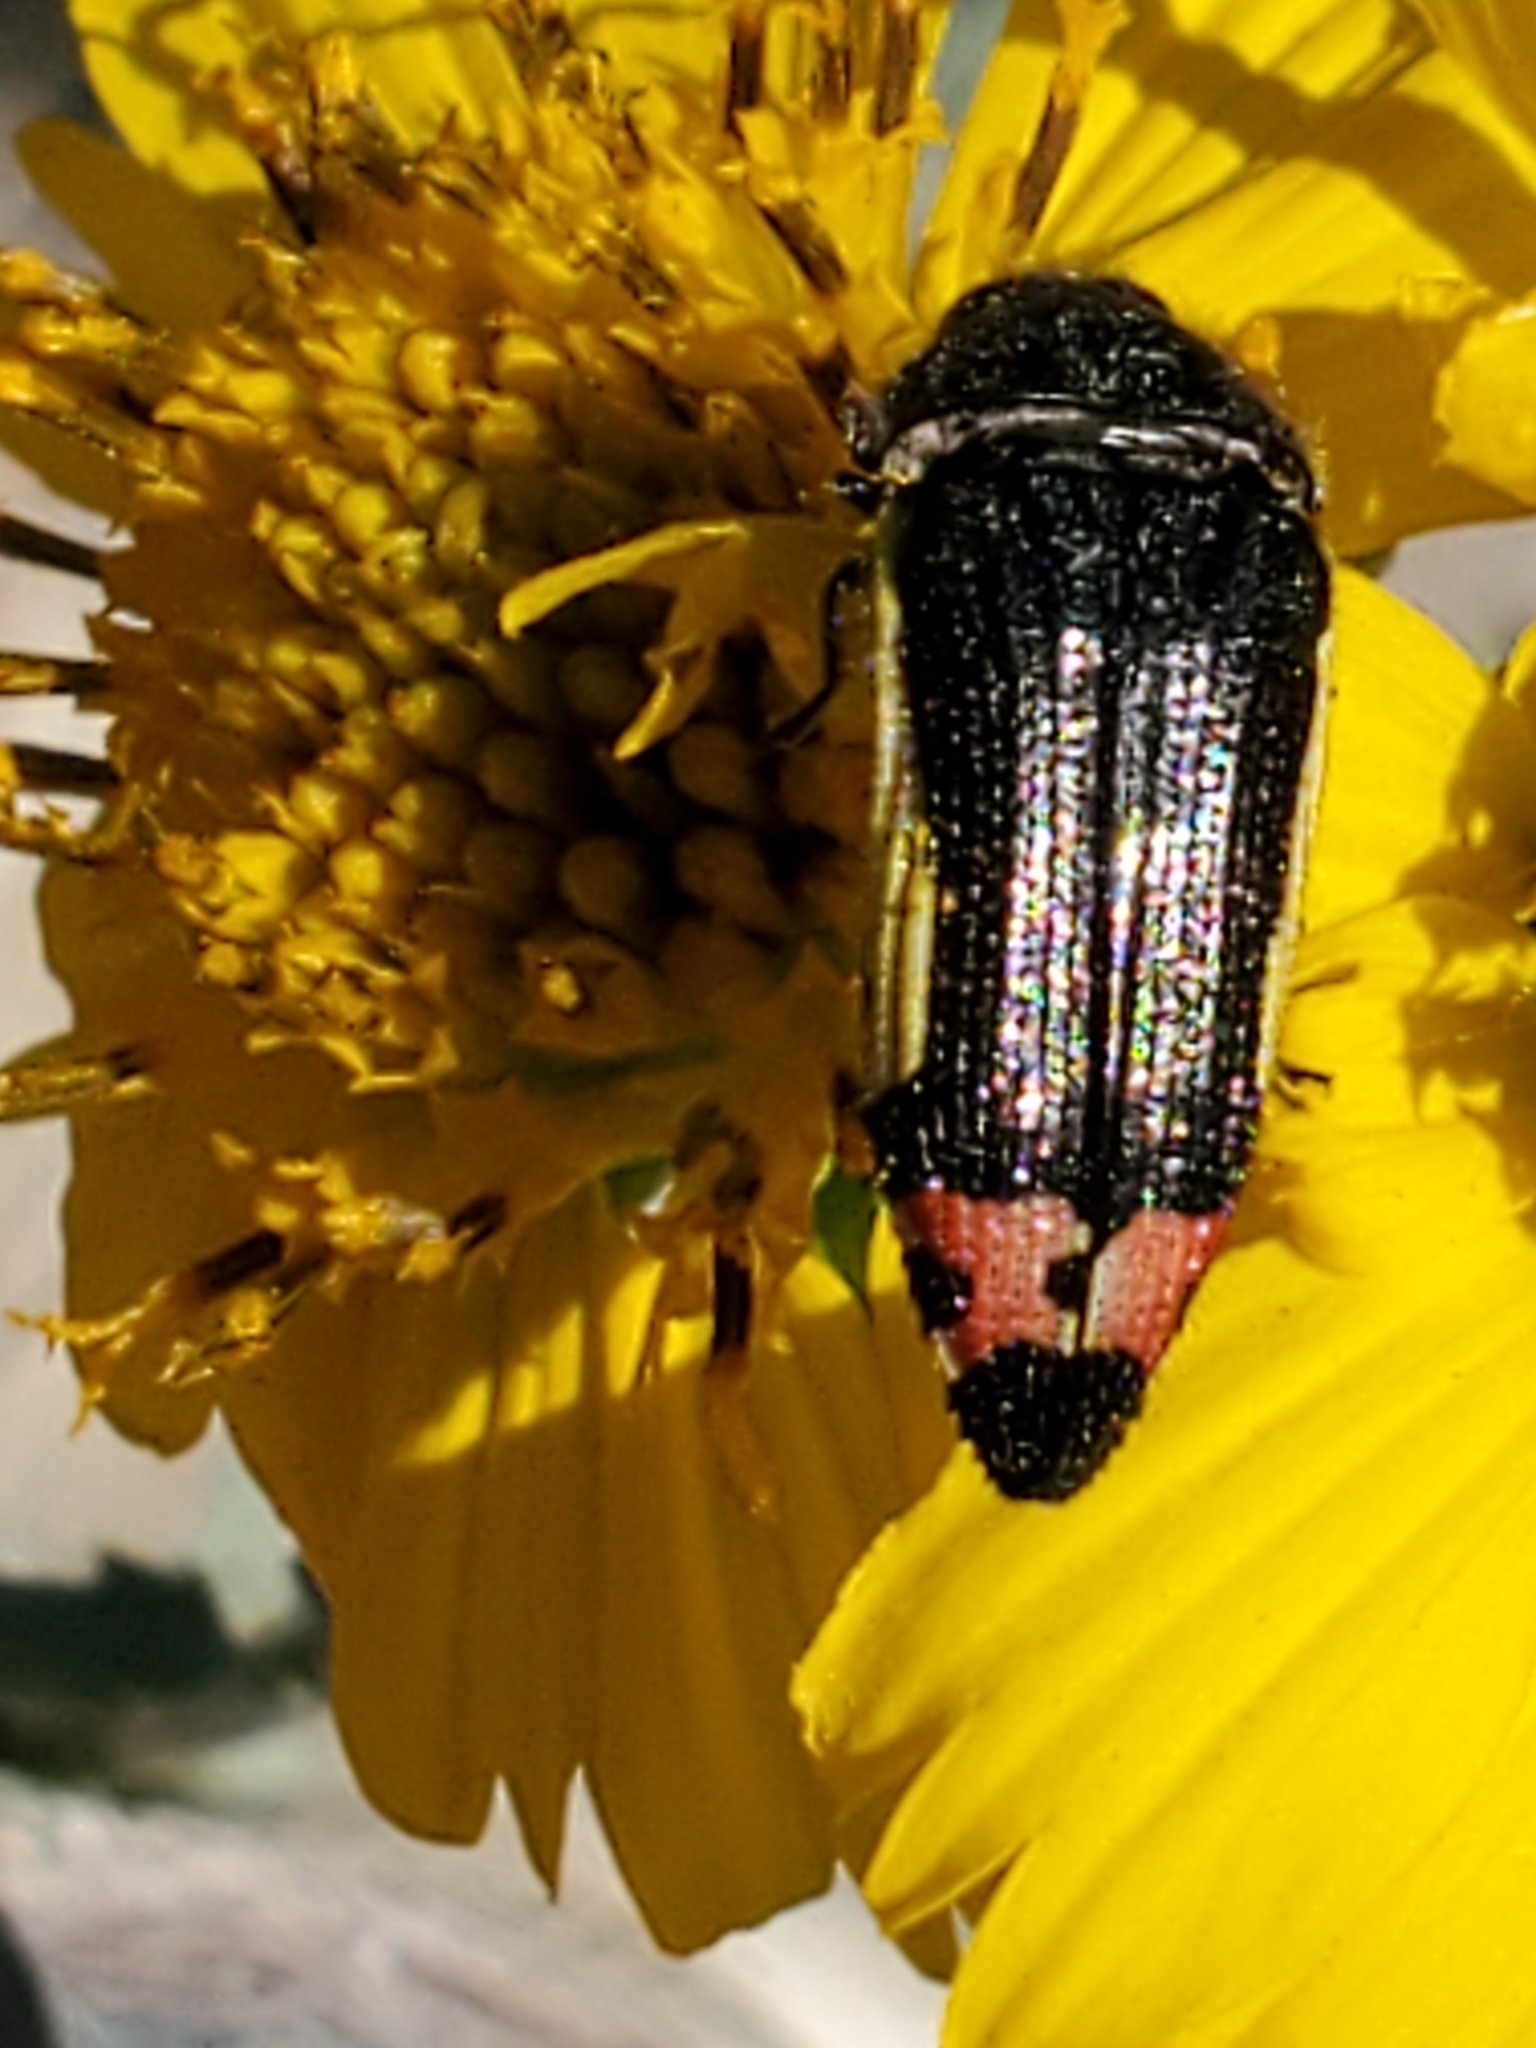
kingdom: Animalia
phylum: Arthropoda
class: Insecta
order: Coleoptera
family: Buprestidae
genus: Acmaeodera
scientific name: Acmaeodera flavomarginata
